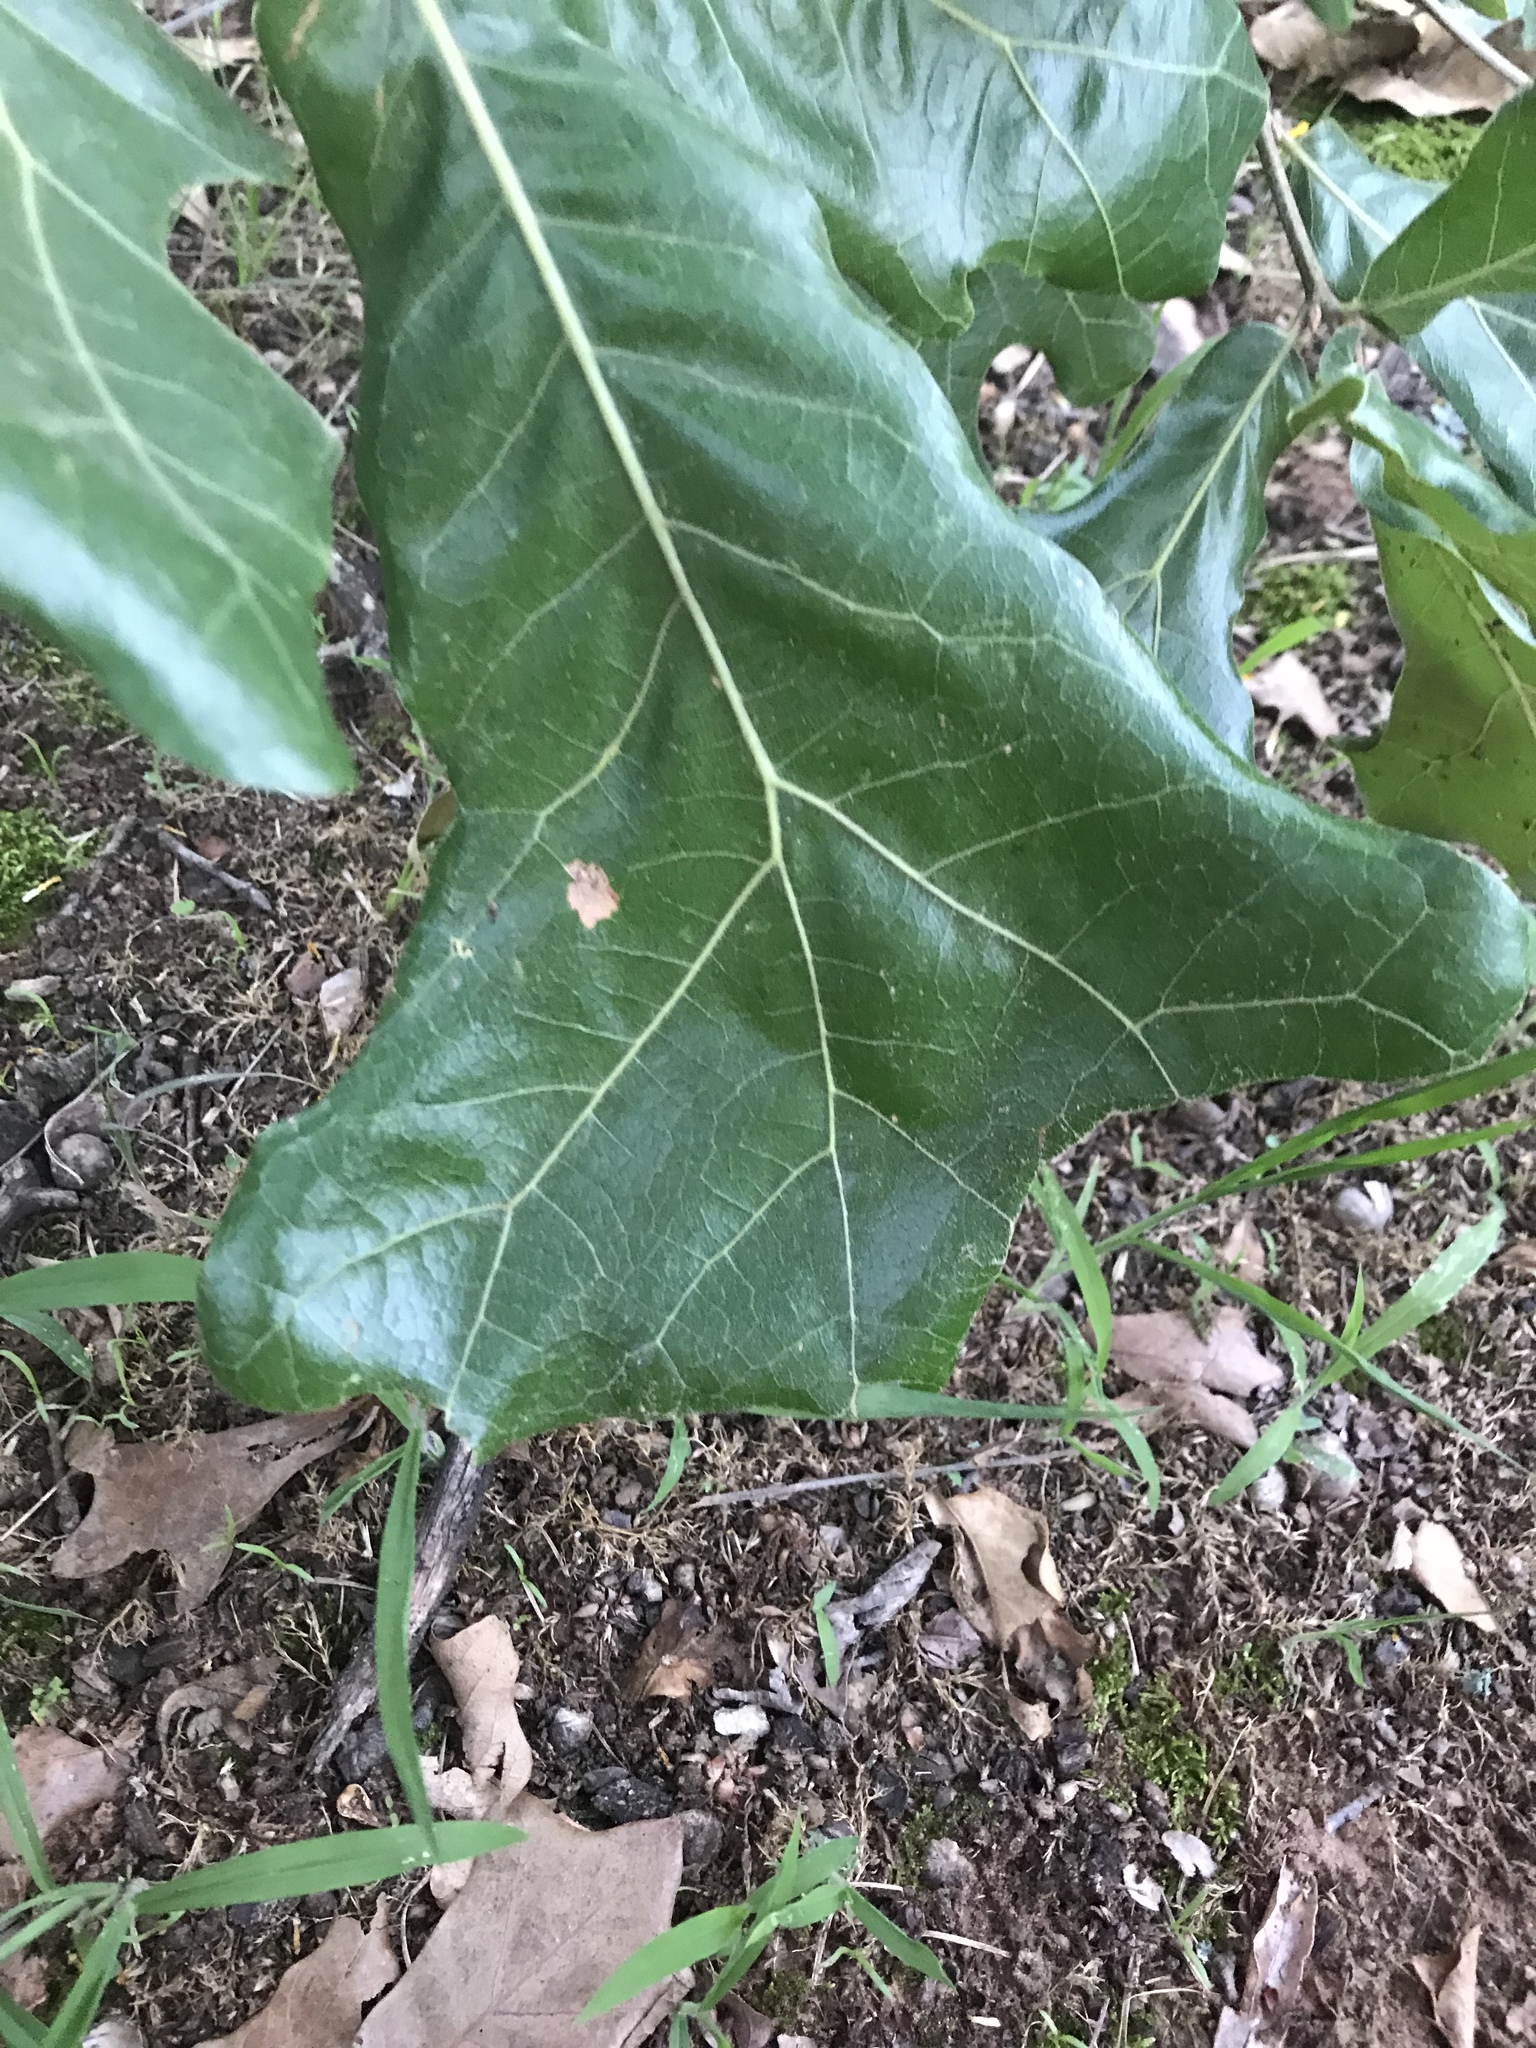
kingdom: Plantae
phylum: Tracheophyta
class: Magnoliopsida
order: Fagales
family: Fagaceae
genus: Quercus
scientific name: Quercus marilandica
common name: Blackjack oak
